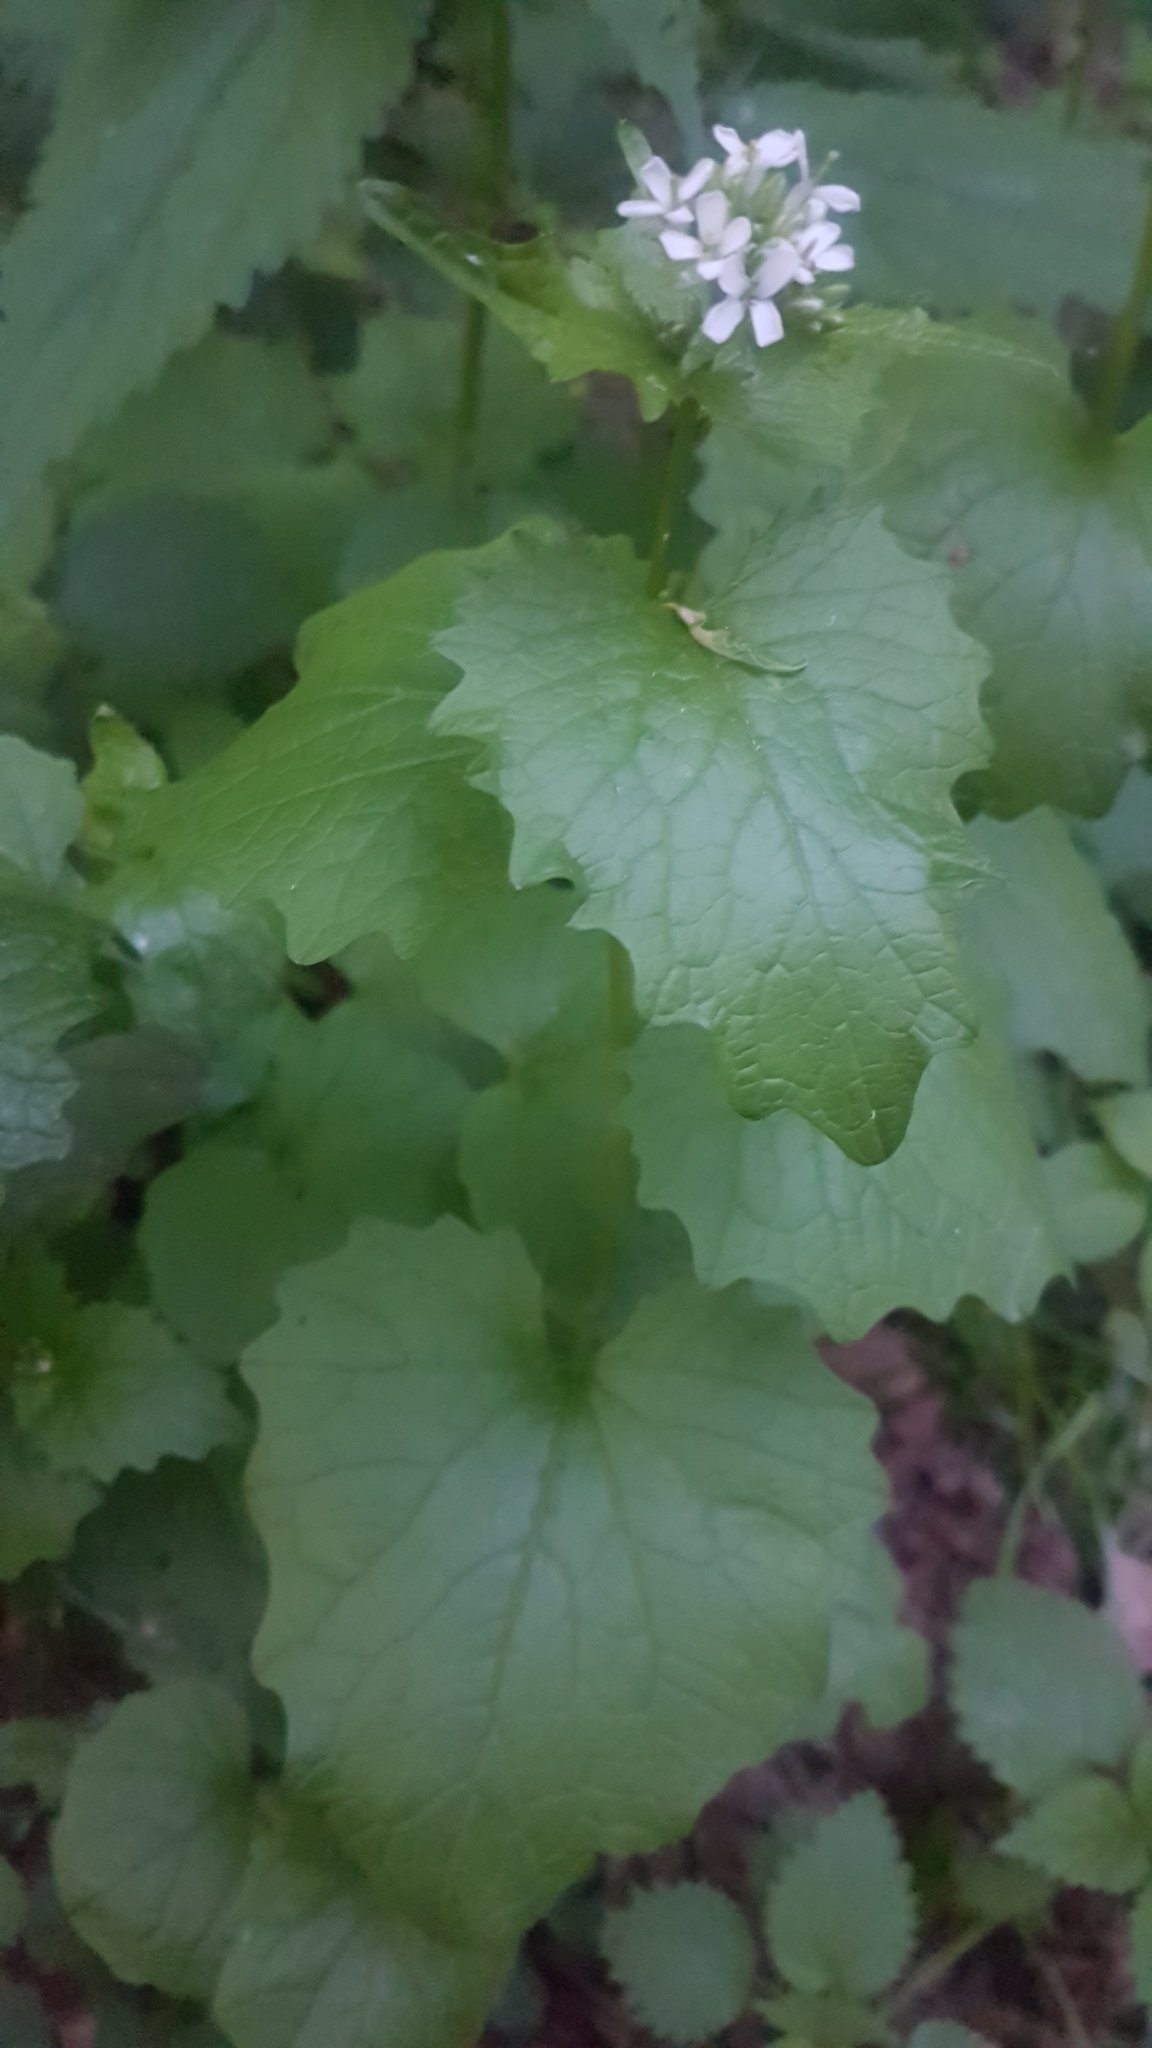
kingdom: Plantae
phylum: Tracheophyta
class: Magnoliopsida
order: Brassicales
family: Brassicaceae
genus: Alliaria
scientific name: Alliaria petiolata
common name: Garlic mustard
